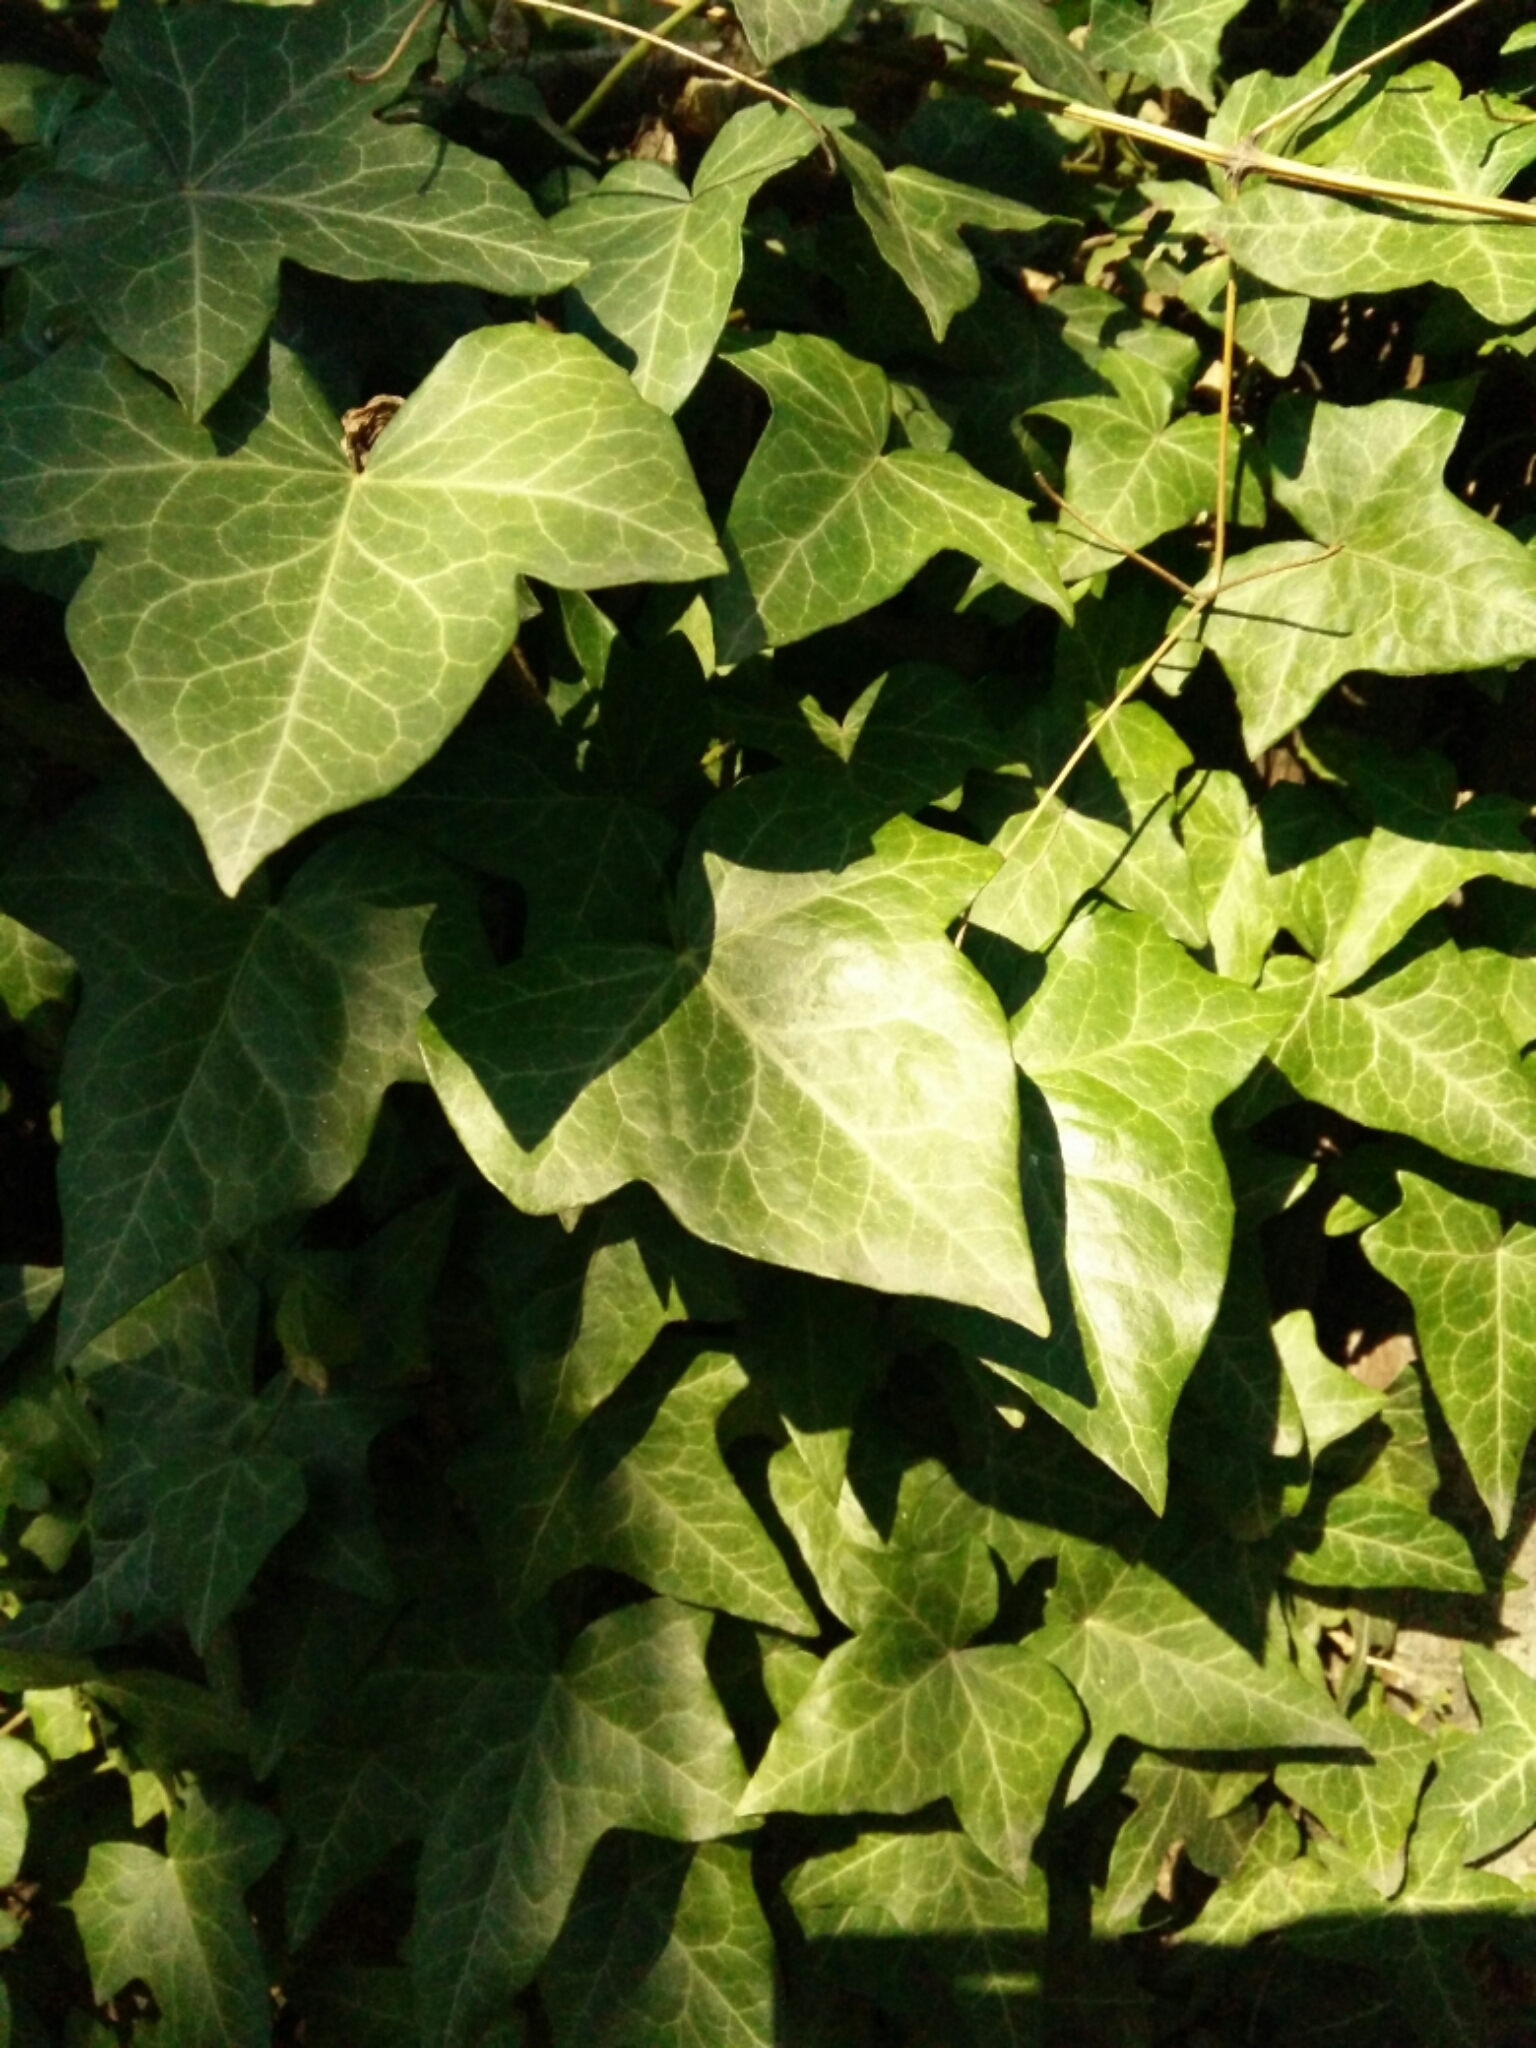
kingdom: Plantae
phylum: Tracheophyta
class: Magnoliopsida
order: Apiales
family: Araliaceae
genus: Hedera
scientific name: Hedera helix
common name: Ivy
